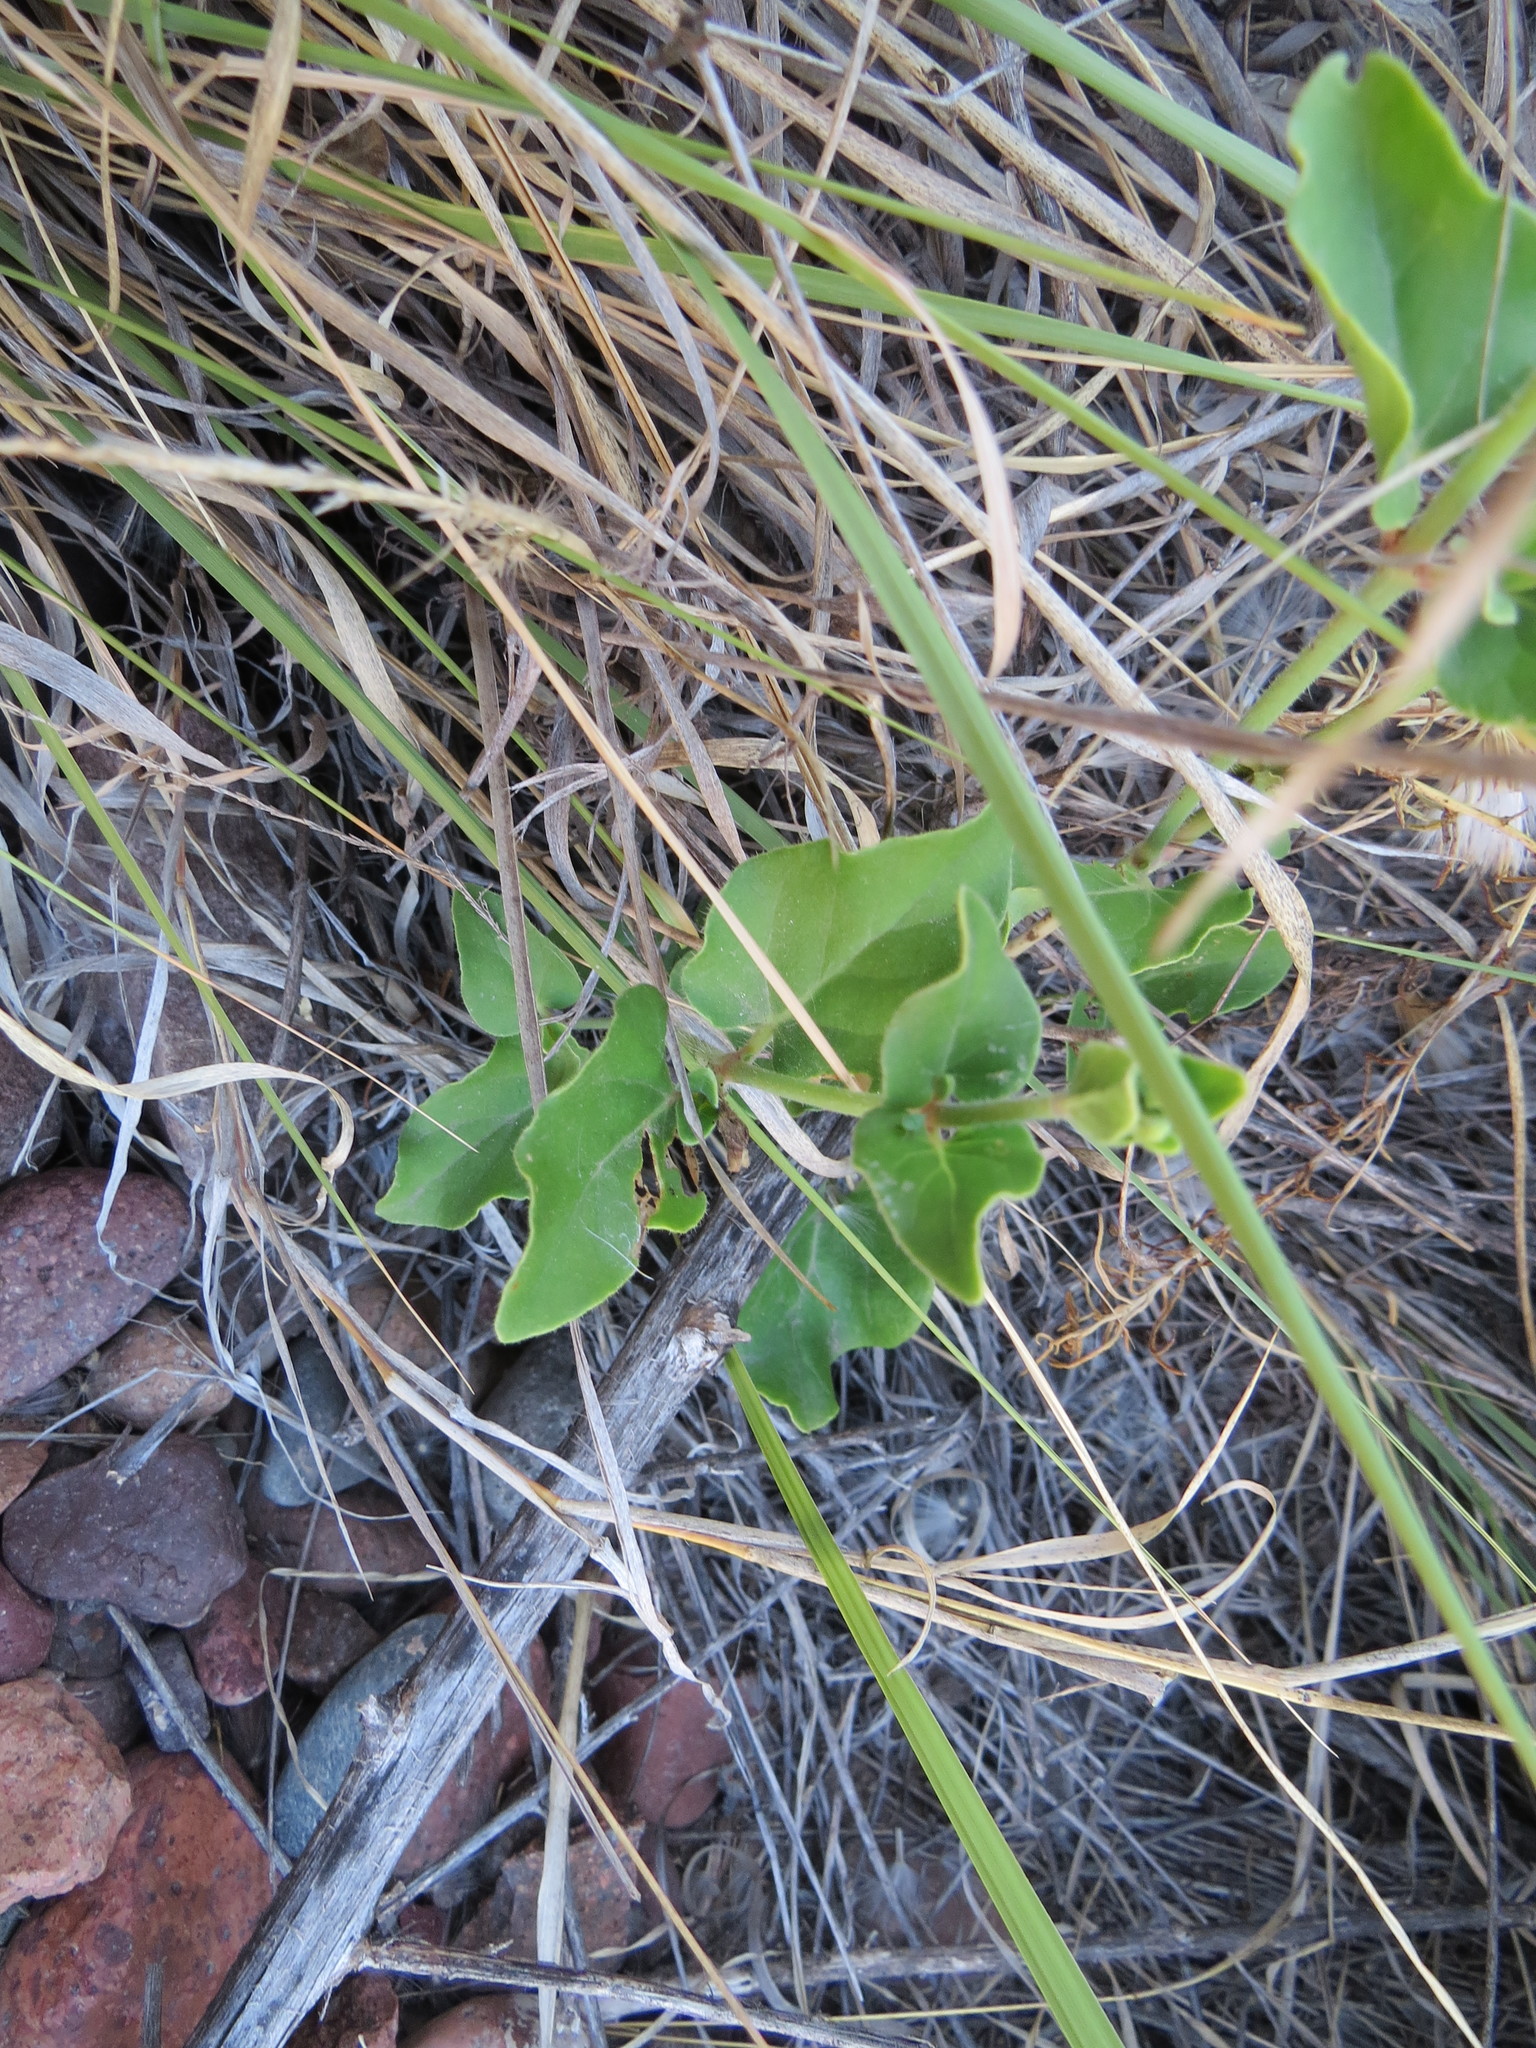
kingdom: Plantae
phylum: Tracheophyta
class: Magnoliopsida
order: Caryophyllales
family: Nyctaginaceae
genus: Mirabilis
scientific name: Mirabilis ovata
